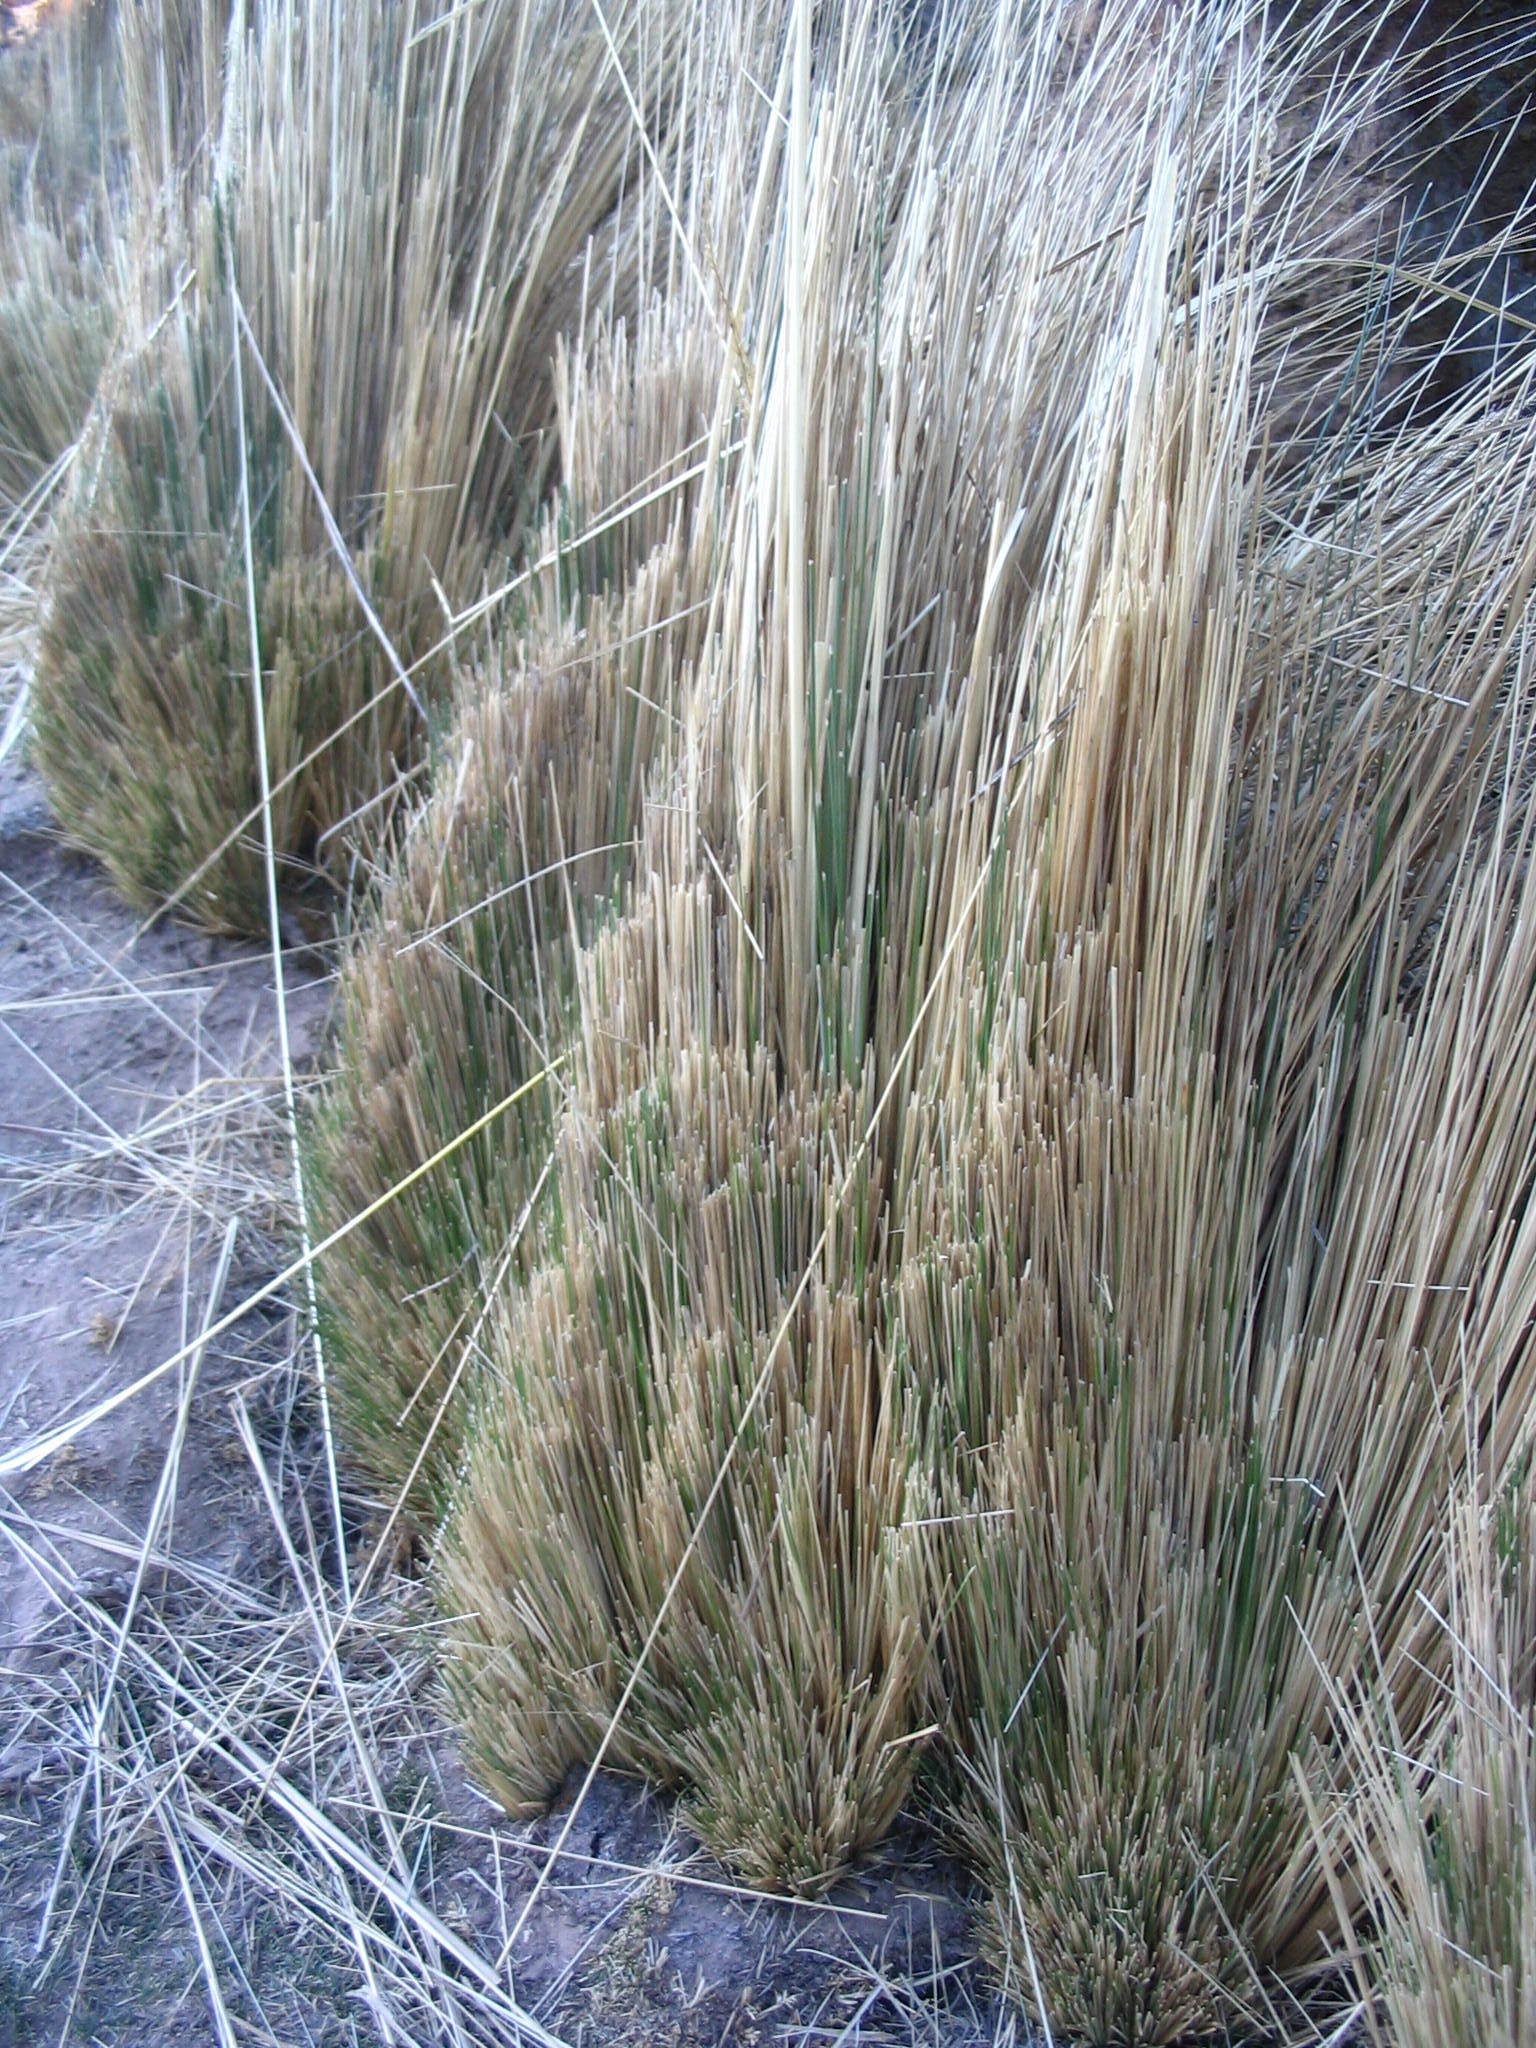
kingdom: Plantae
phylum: Tracheophyta
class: Liliopsida
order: Poales
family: Poaceae
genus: Jarava
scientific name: Jarava ichu
